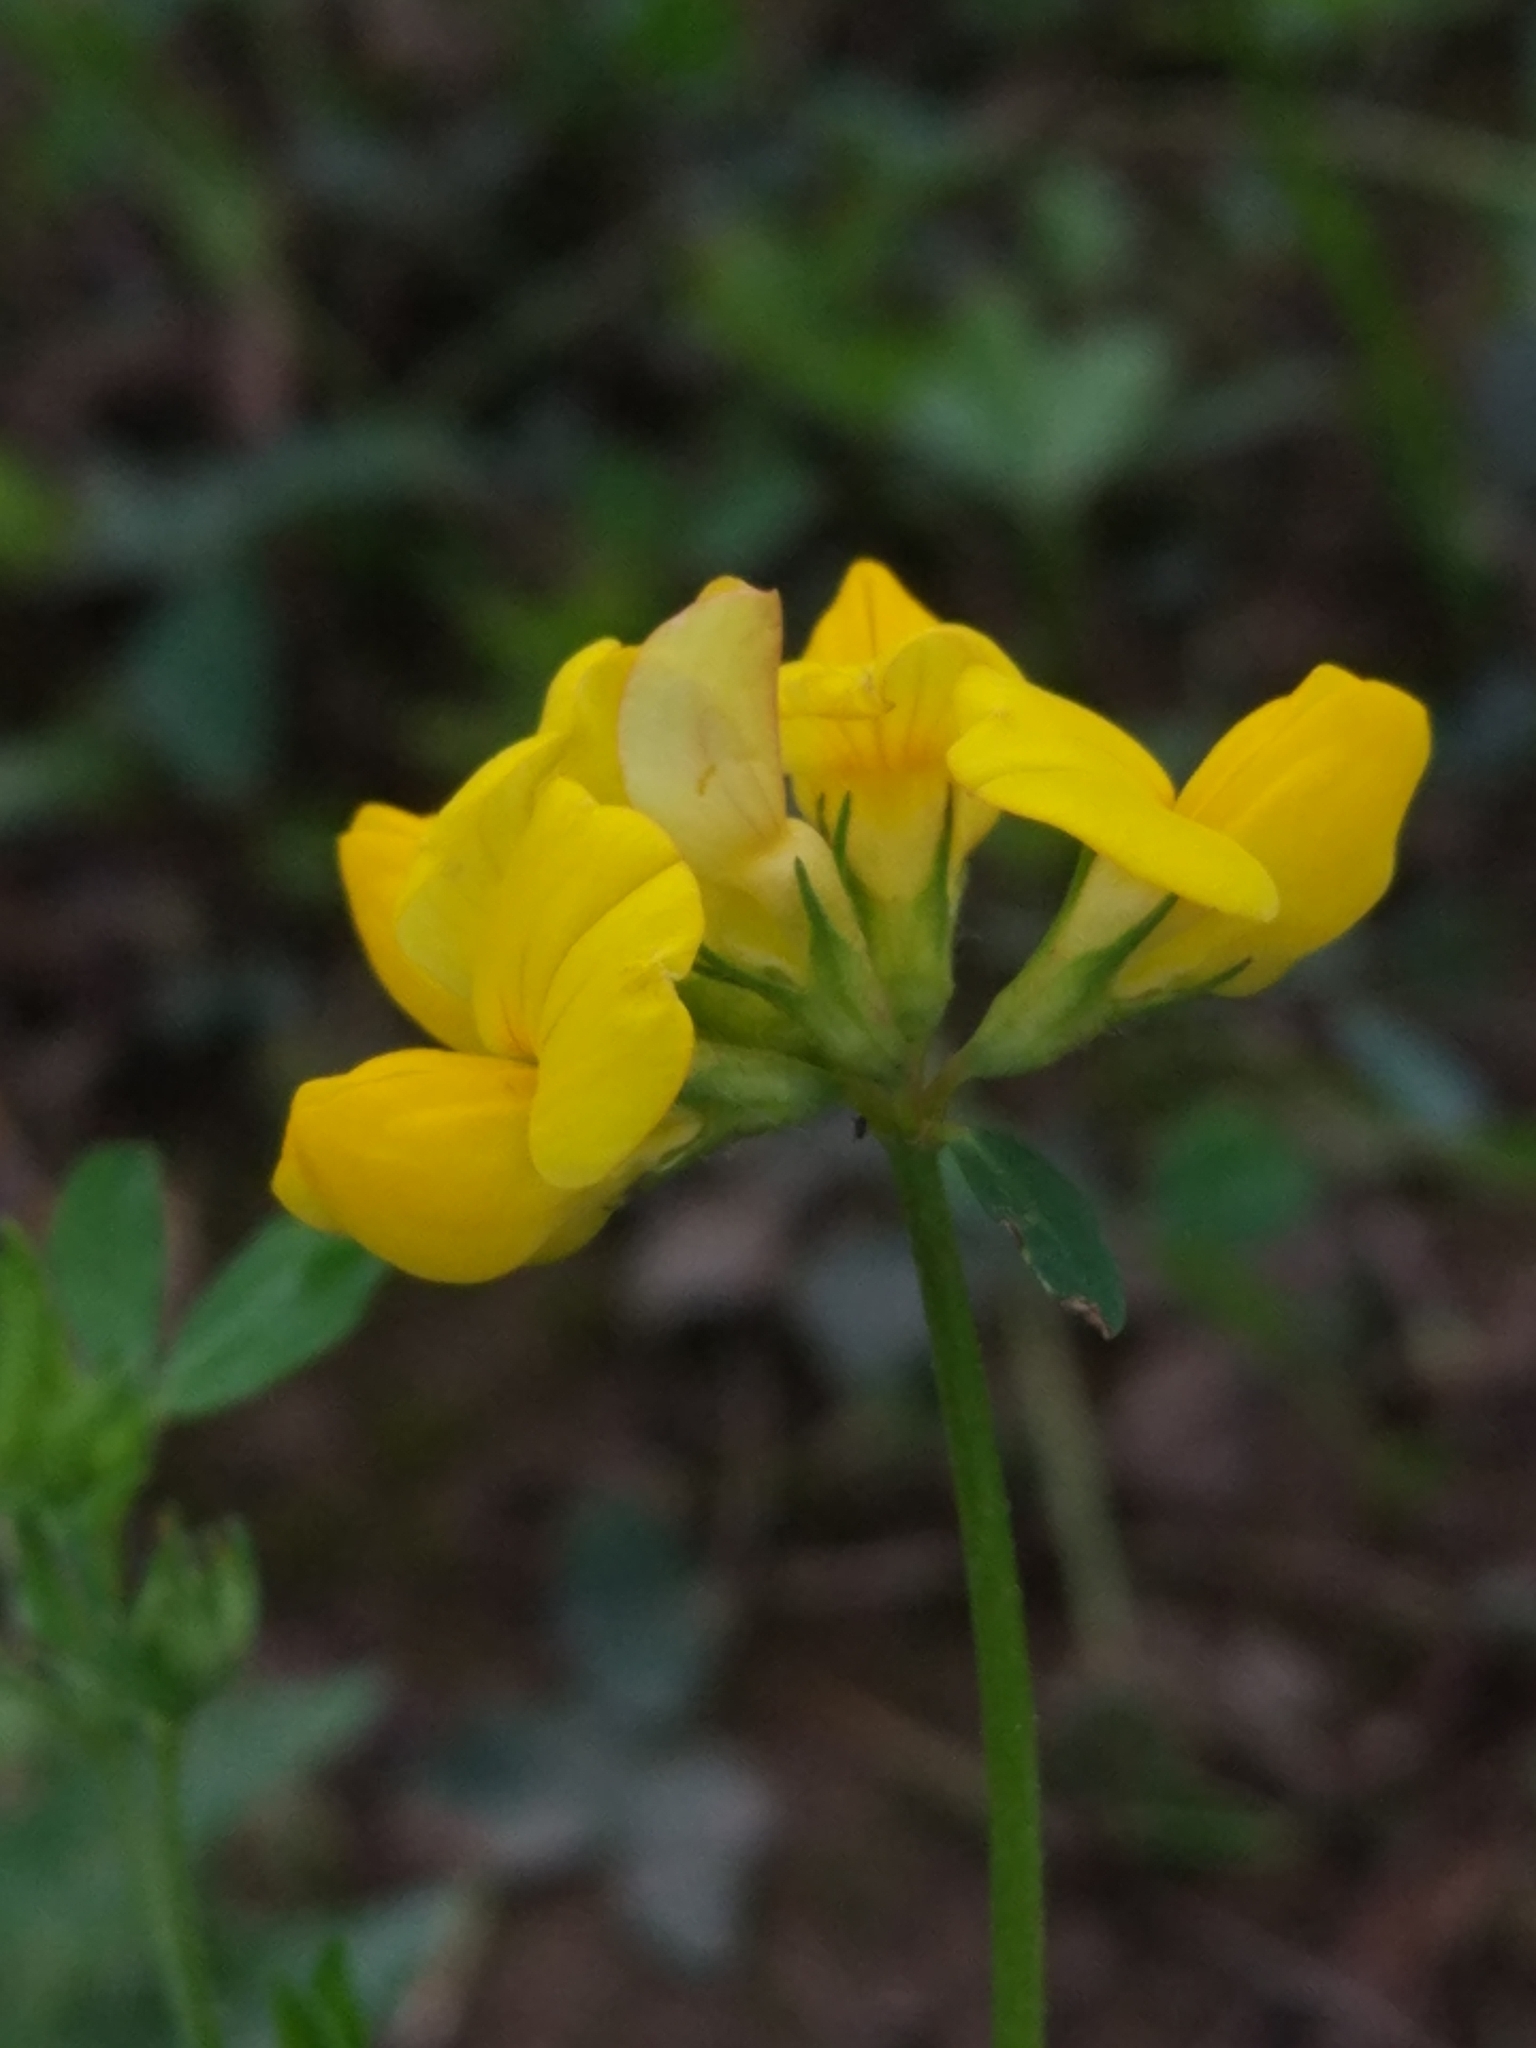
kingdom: Plantae
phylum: Tracheophyta
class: Magnoliopsida
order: Fabales
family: Fabaceae
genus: Lotus
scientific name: Lotus corniculatus
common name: Common bird's-foot-trefoil
